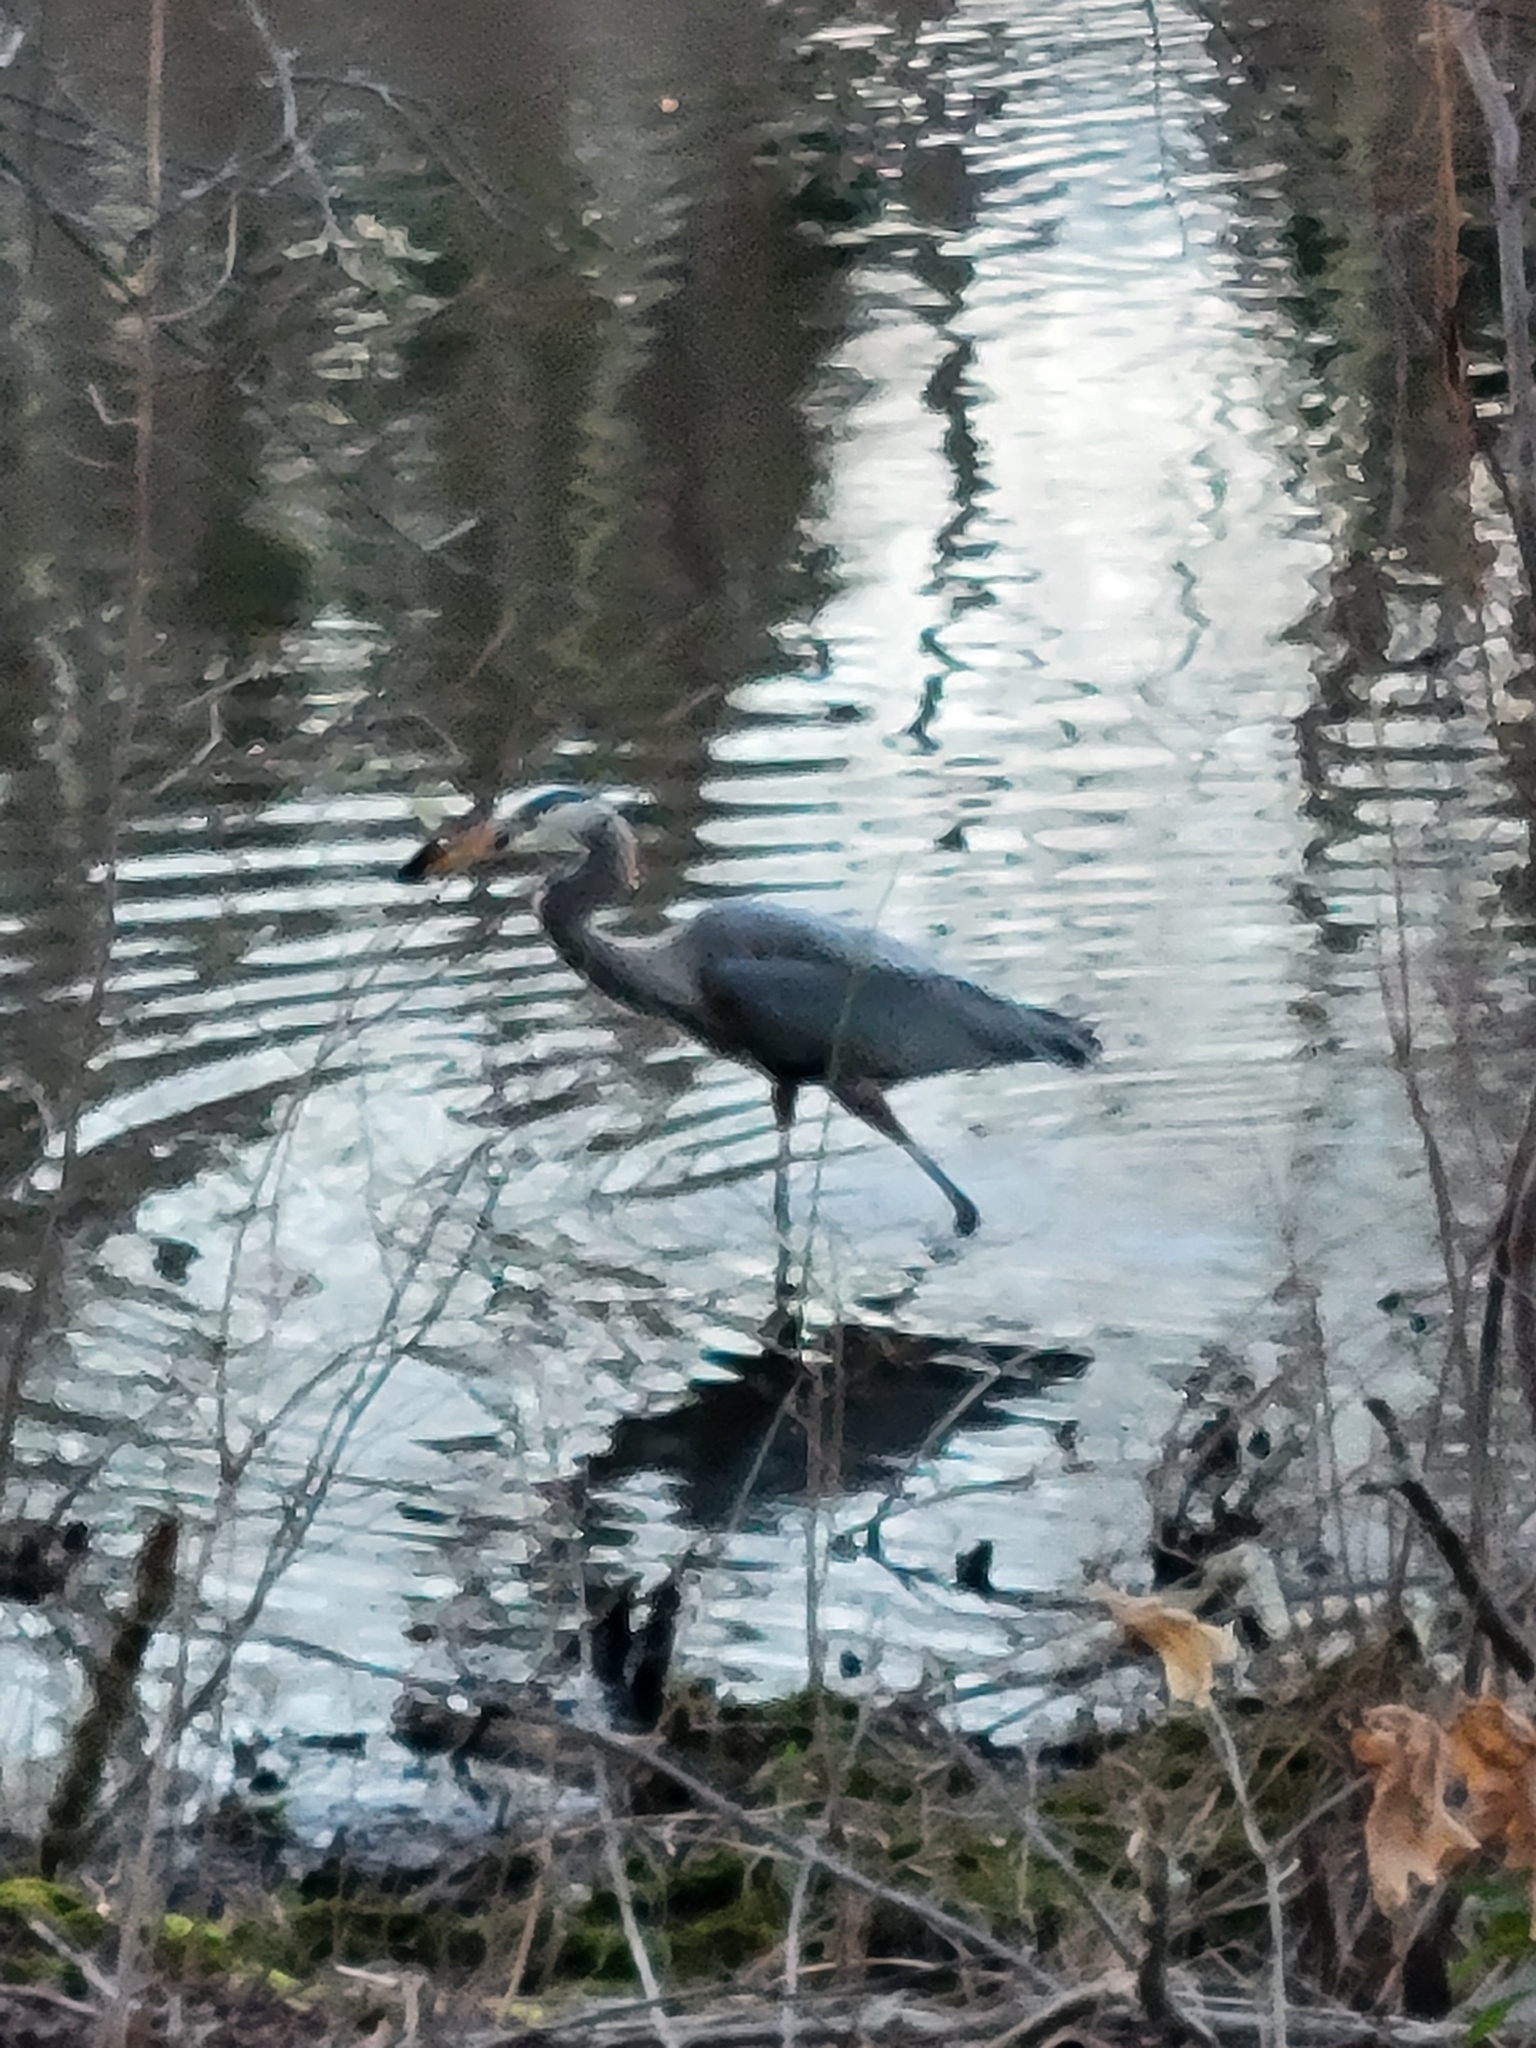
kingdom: Animalia
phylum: Chordata
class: Aves
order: Pelecaniformes
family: Ardeidae
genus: Ardea
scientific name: Ardea herodias
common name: Great blue heron
